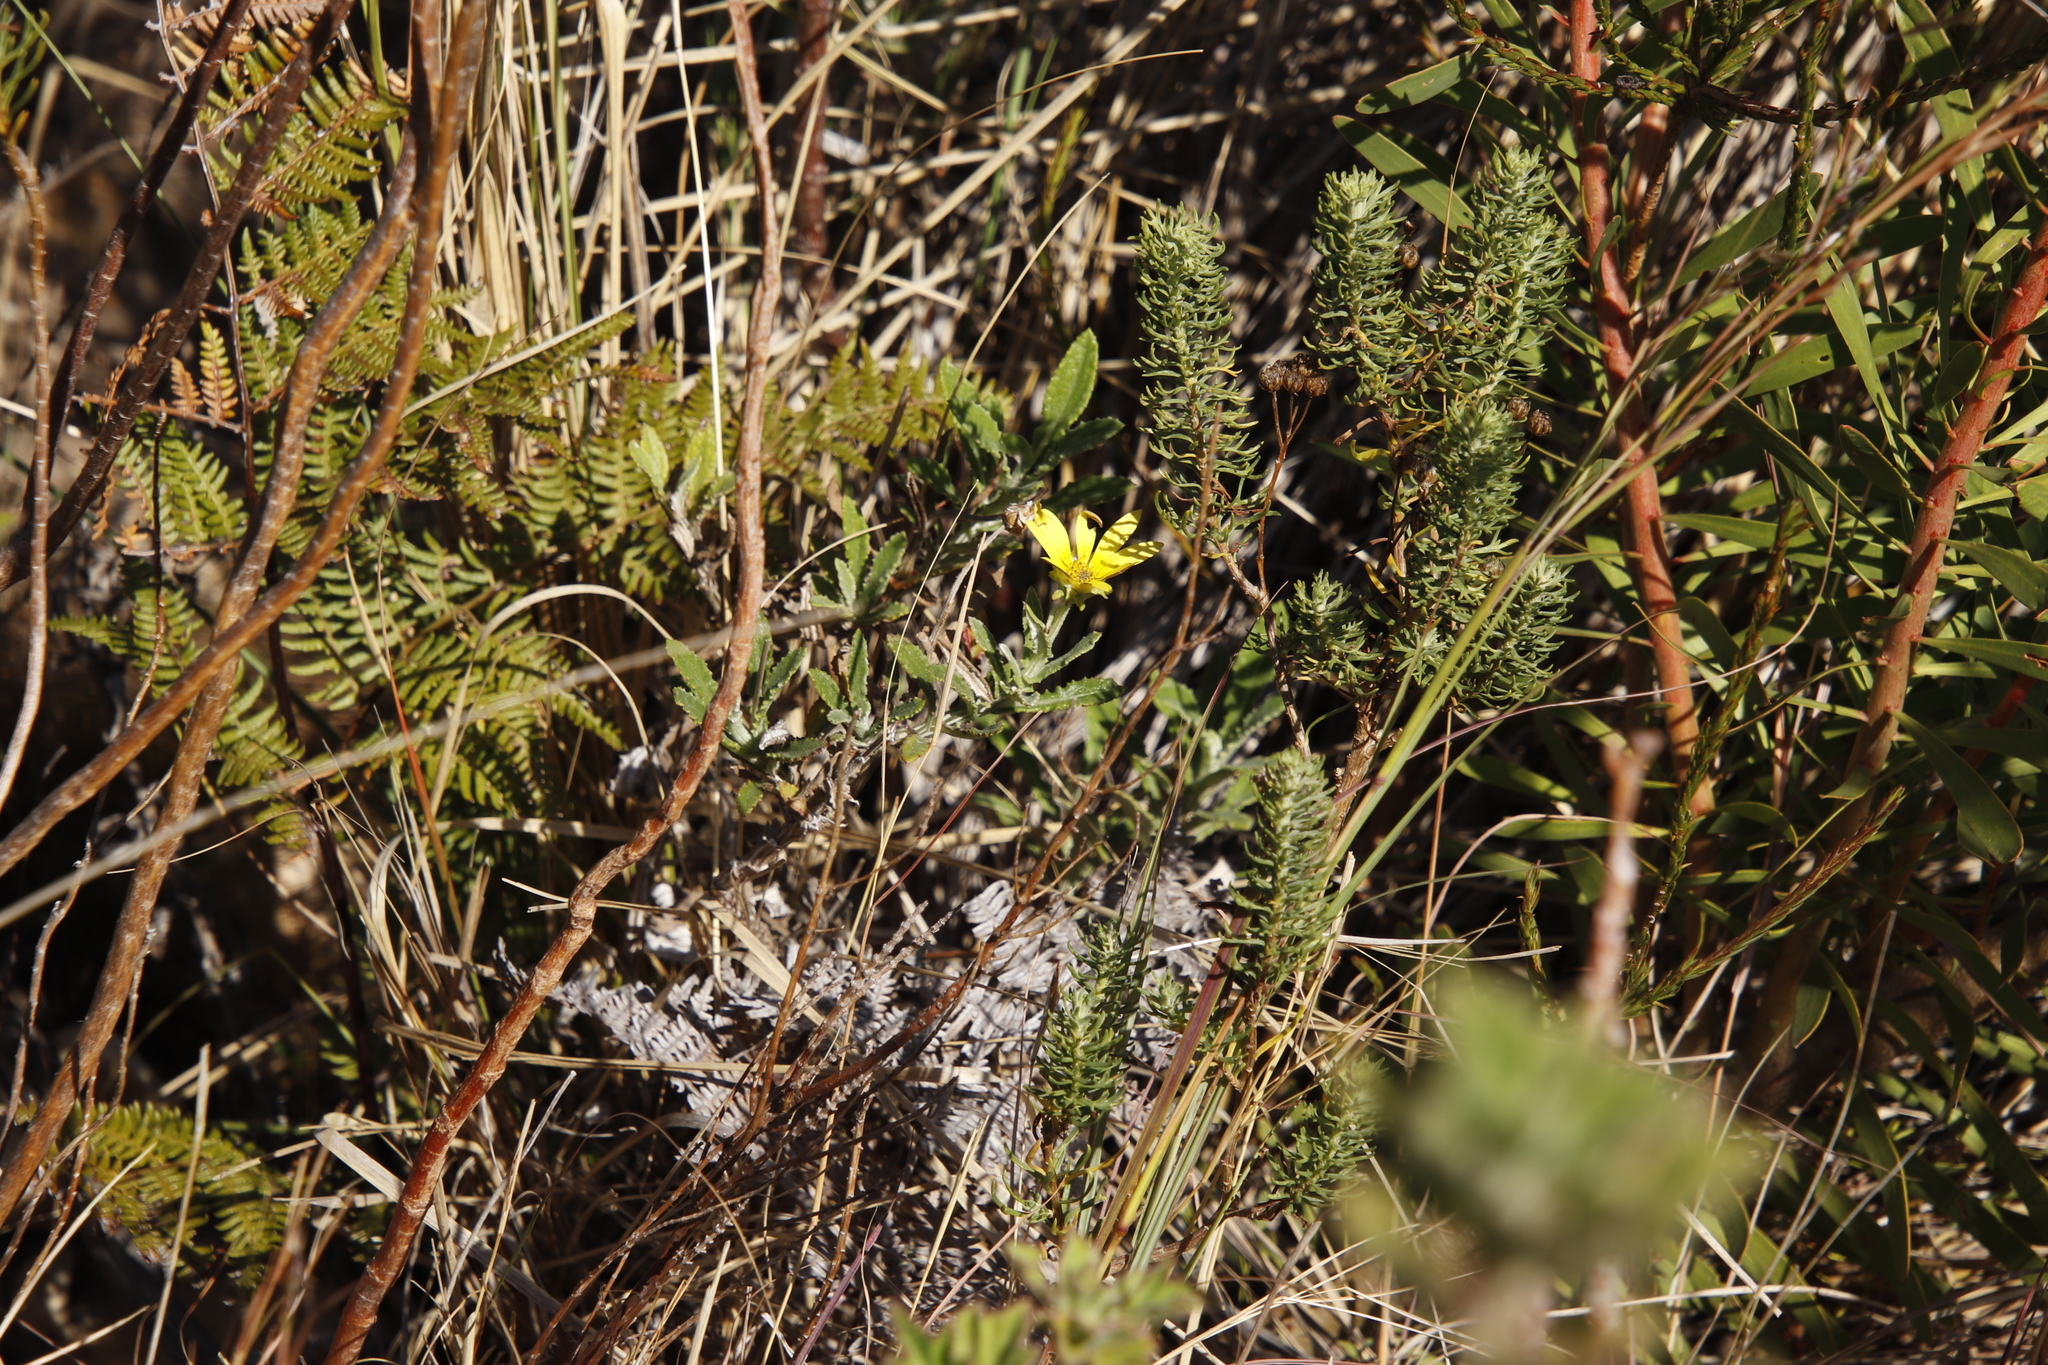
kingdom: Plantae
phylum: Tracheophyta
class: Magnoliopsida
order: Asterales
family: Asteraceae
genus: Arctotis
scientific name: Arctotis scabra
